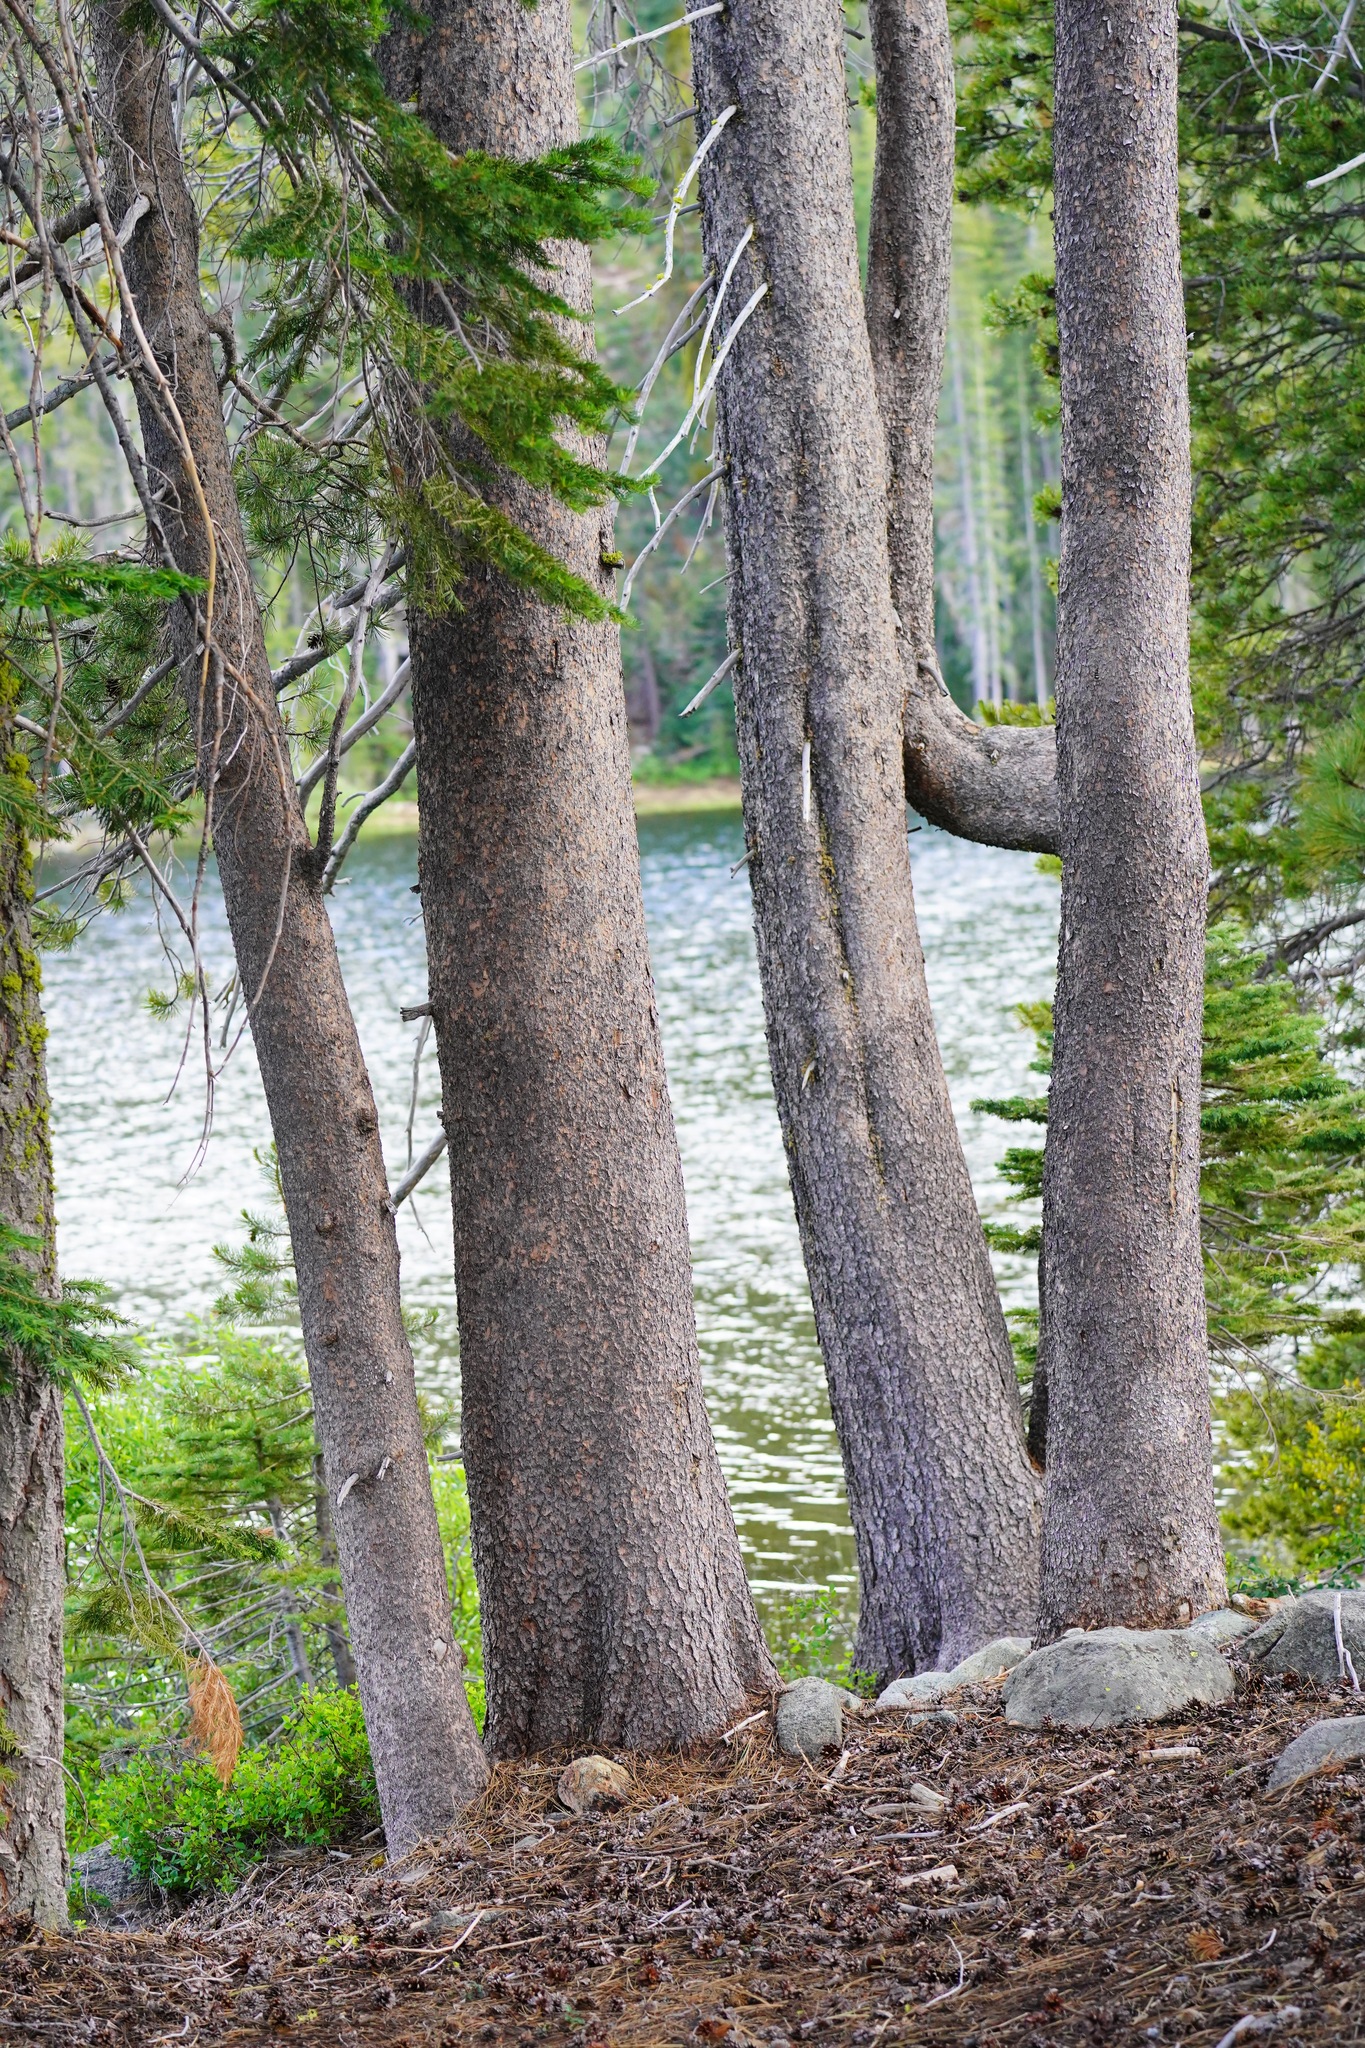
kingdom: Plantae
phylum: Tracheophyta
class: Pinopsida
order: Pinales
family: Pinaceae
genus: Pinus
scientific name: Pinus contorta
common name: Lodgepole pine
